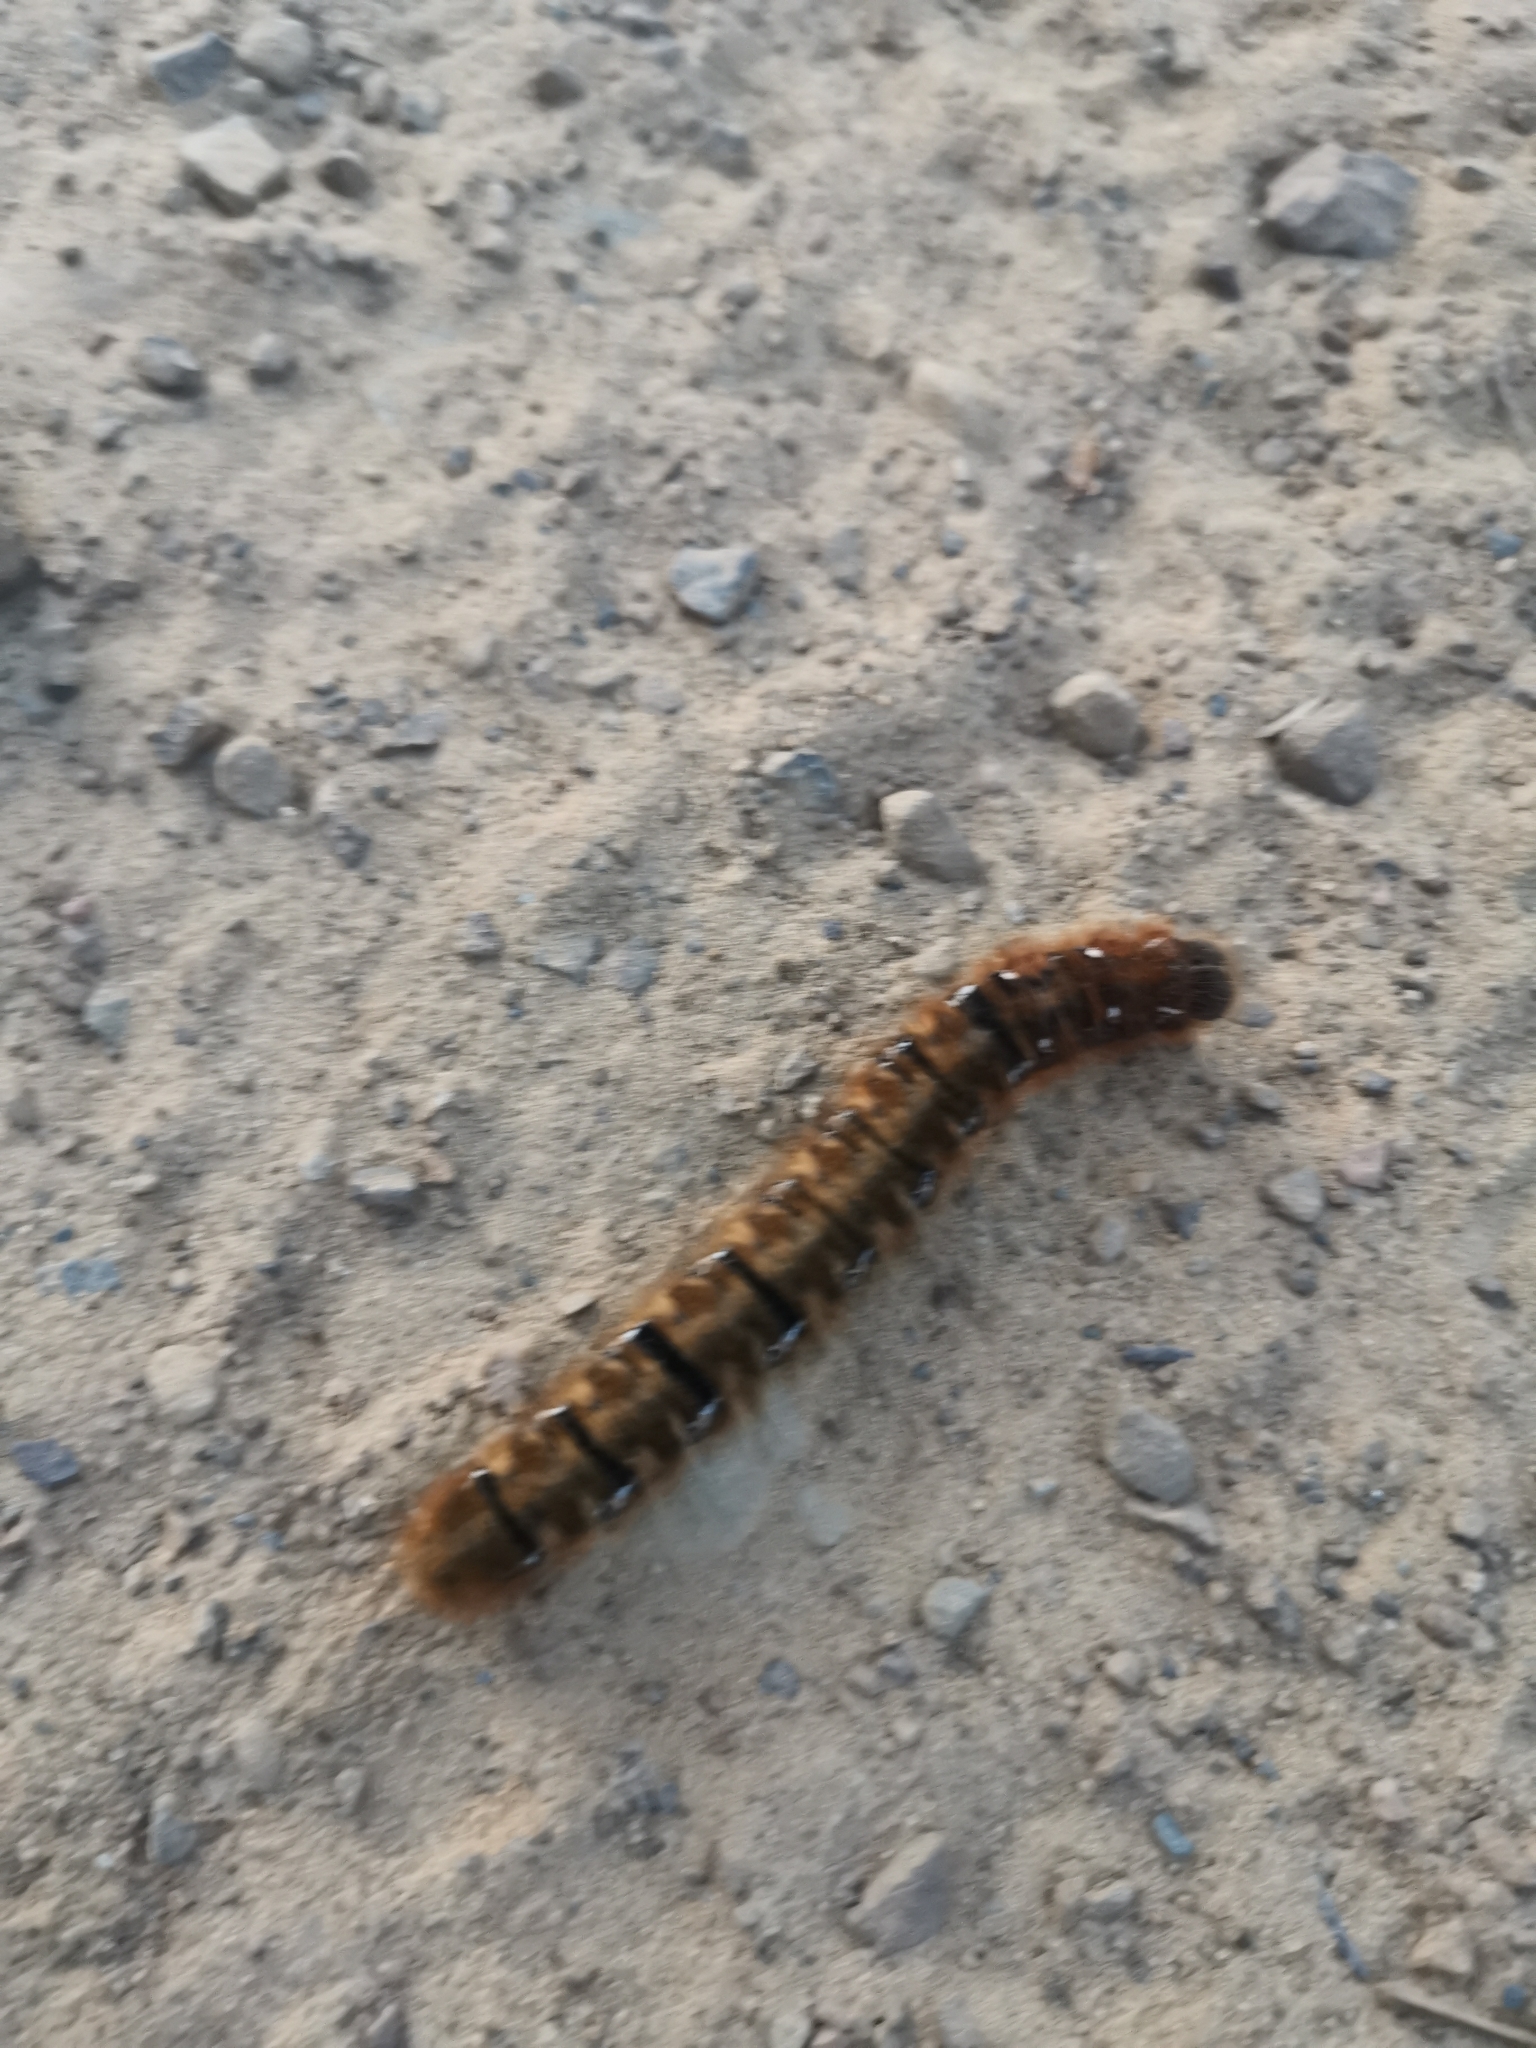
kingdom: Animalia
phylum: Arthropoda
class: Insecta
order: Lepidoptera
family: Lasiocampidae
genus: Lasiocampa
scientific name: Lasiocampa quercus
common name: Oak eggar
